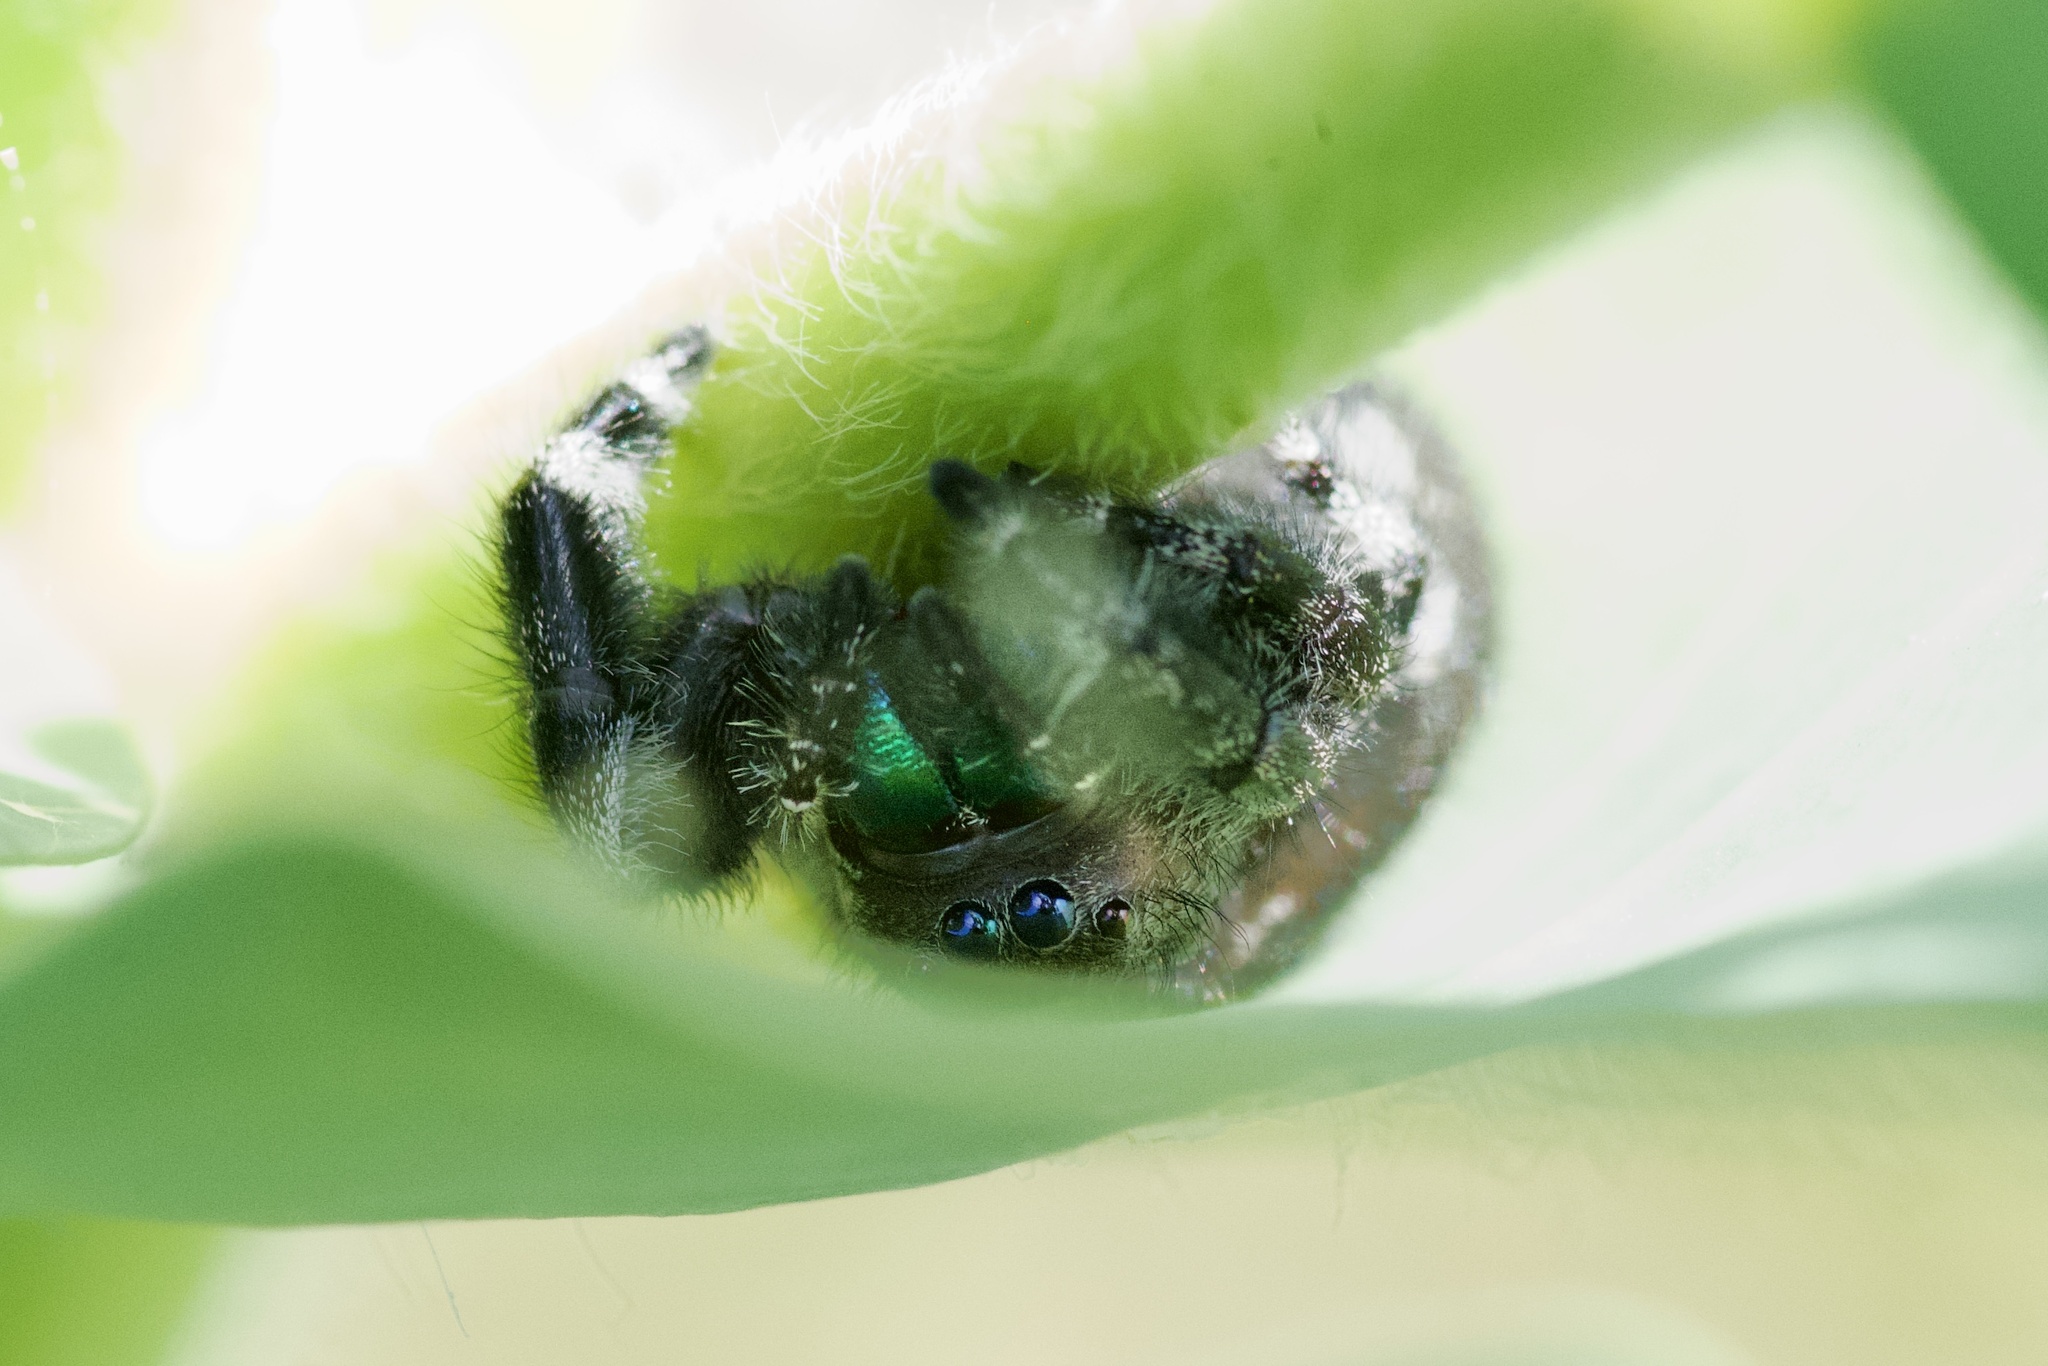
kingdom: Animalia
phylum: Arthropoda
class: Arachnida
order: Araneae
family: Salticidae
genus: Phidippus
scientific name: Phidippus audax
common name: Bold jumper
